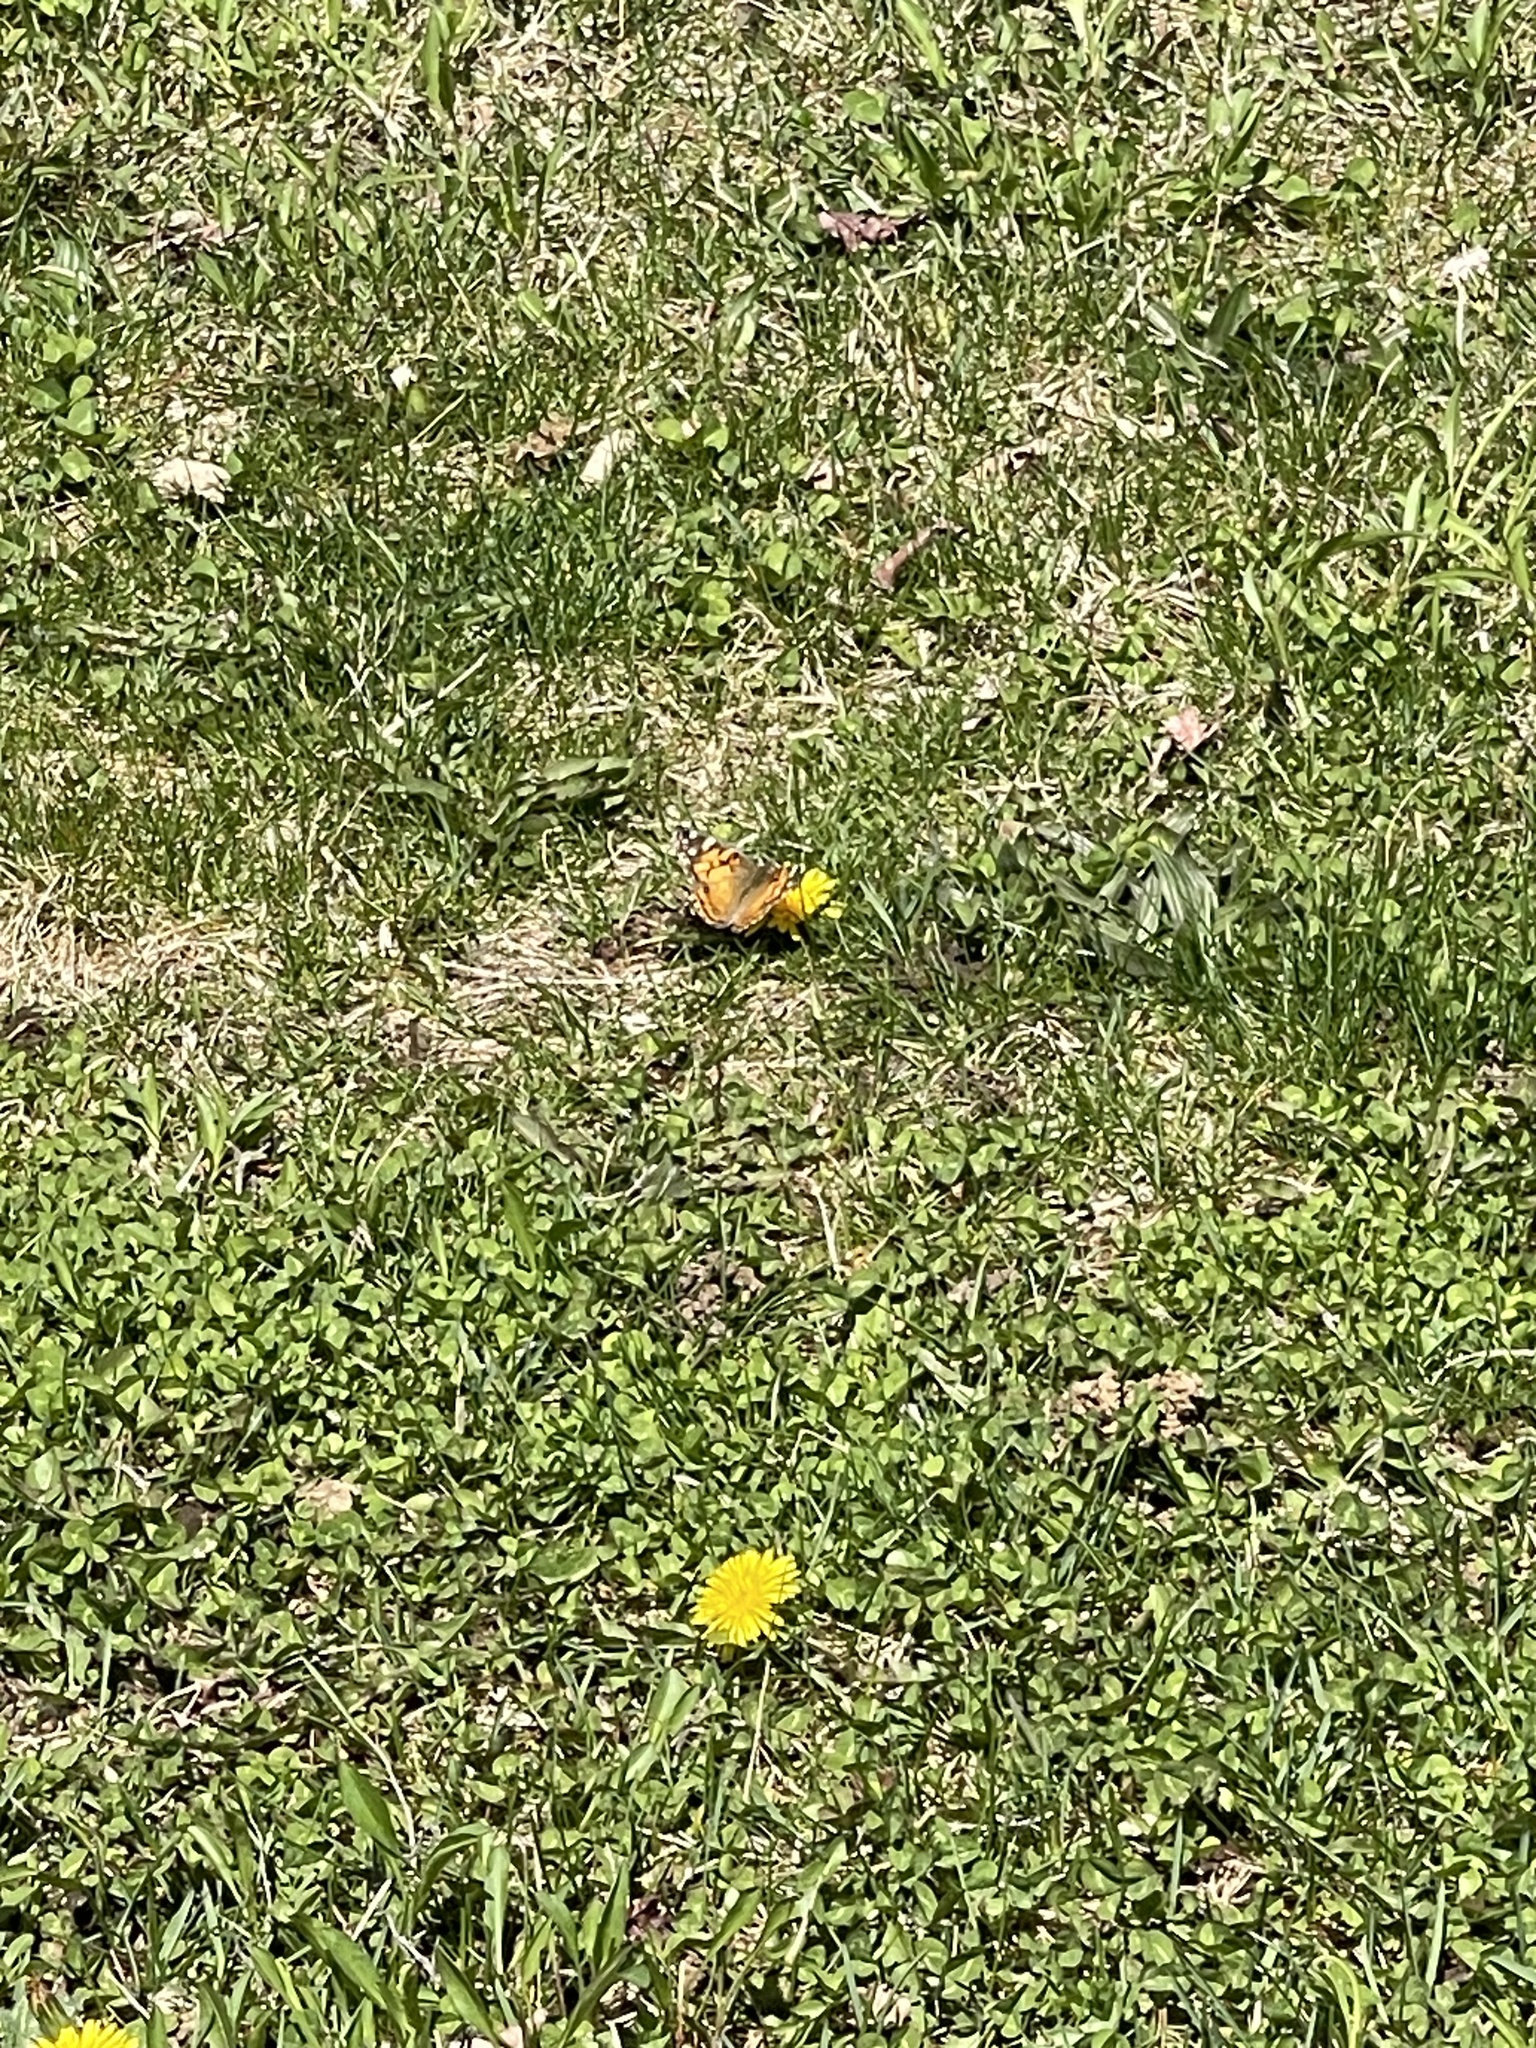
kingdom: Animalia
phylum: Arthropoda
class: Insecta
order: Lepidoptera
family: Nymphalidae
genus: Vanessa
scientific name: Vanessa virginiensis
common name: American lady
